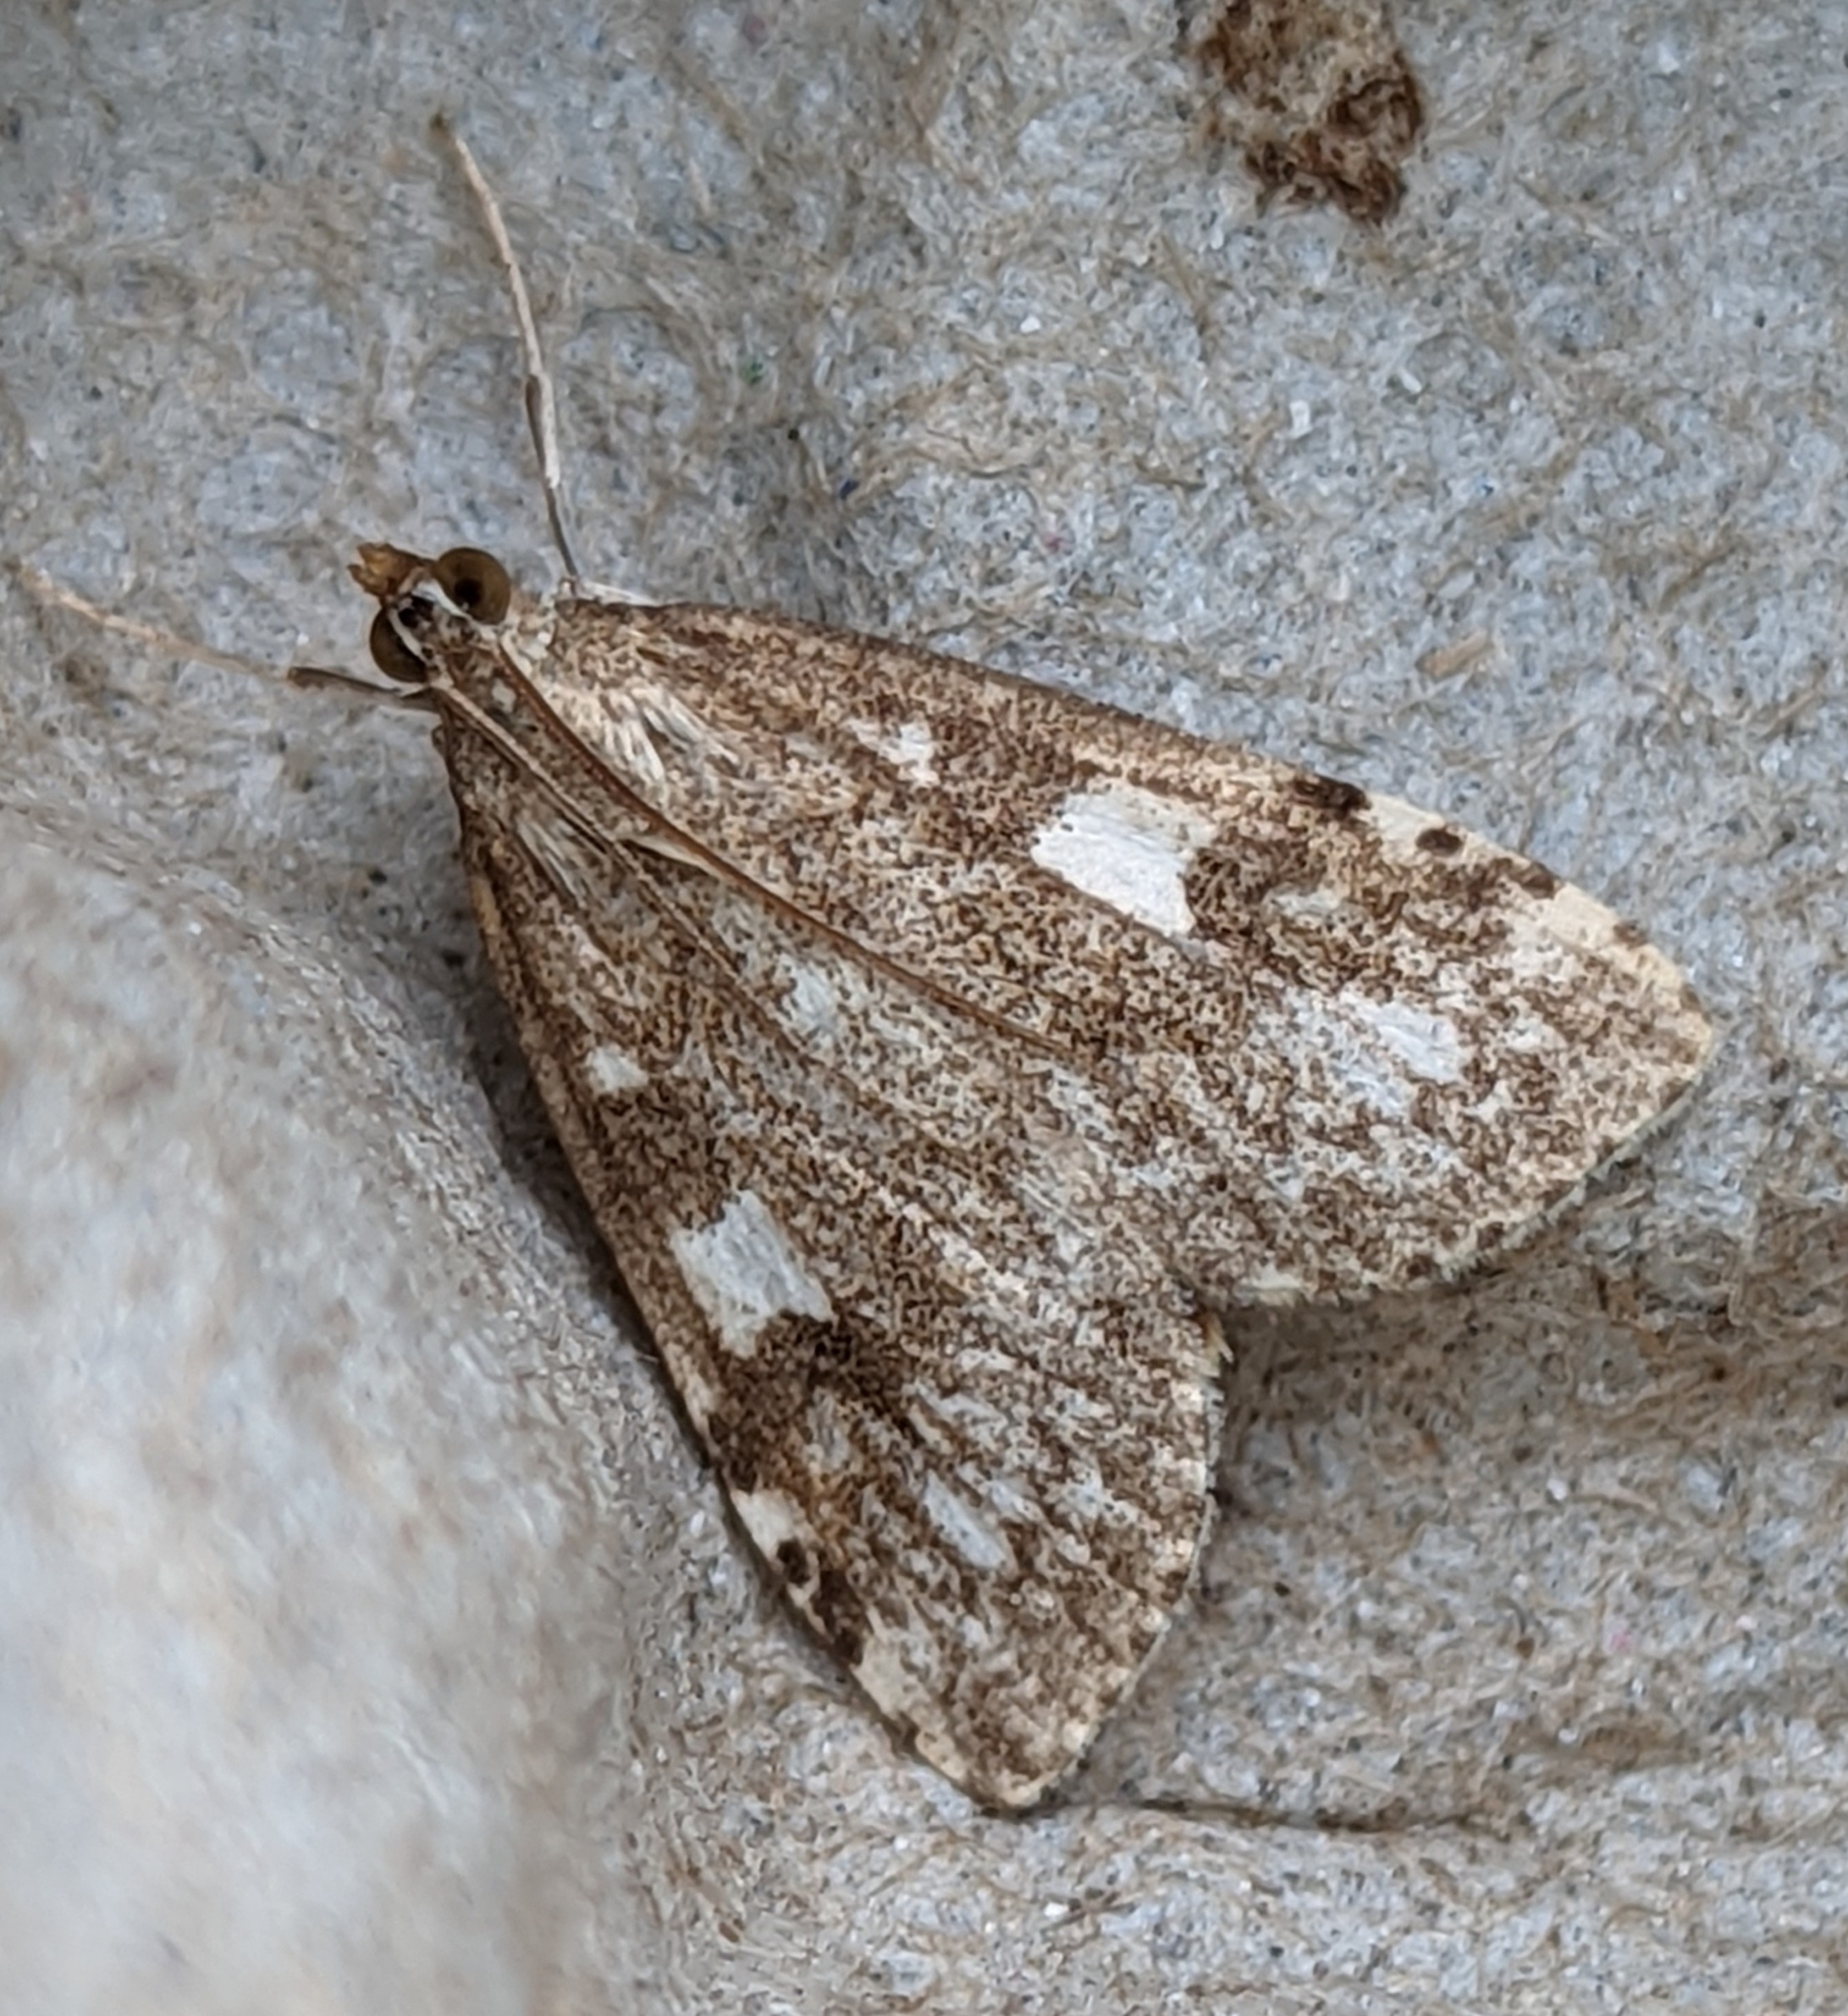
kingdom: Animalia
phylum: Arthropoda
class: Insecta
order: Lepidoptera
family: Crambidae
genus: Udea
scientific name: Udea olivalis
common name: Olive pearl
